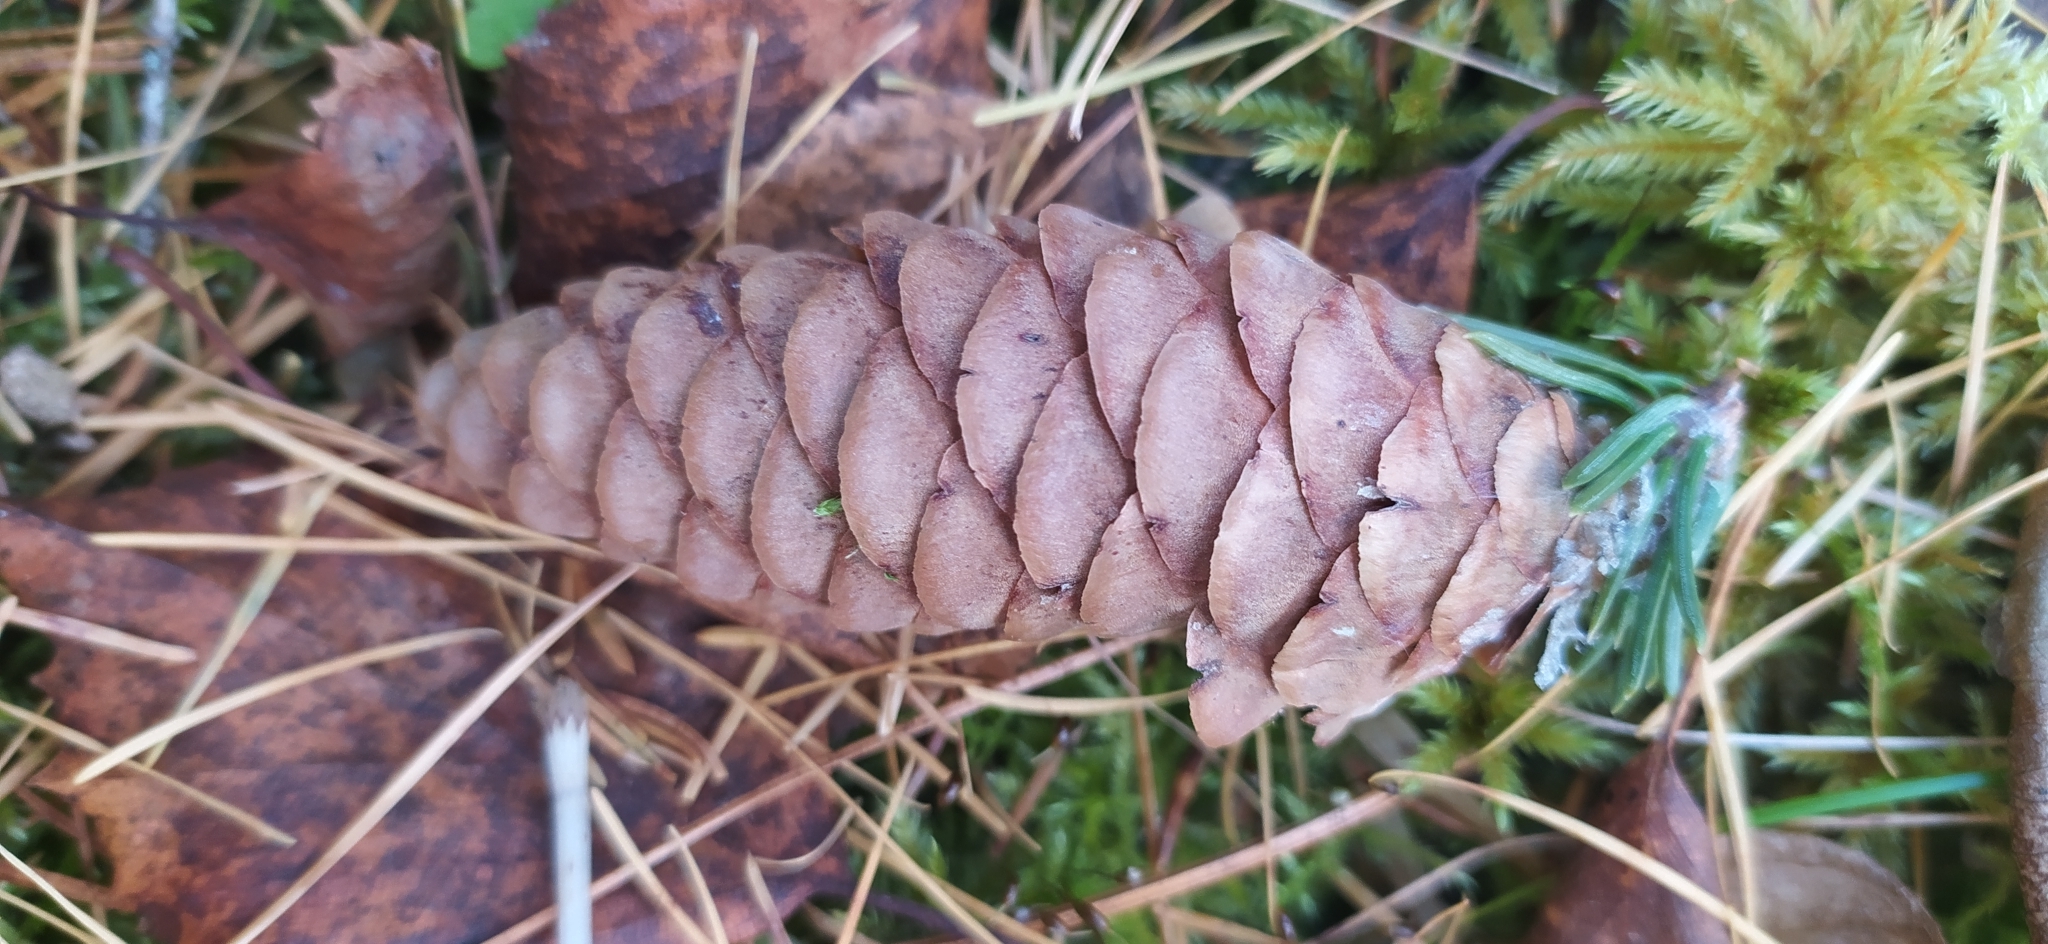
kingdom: Plantae
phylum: Tracheophyta
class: Pinopsida
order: Pinales
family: Pinaceae
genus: Picea
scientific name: Picea obovata
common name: Siberian spruce
